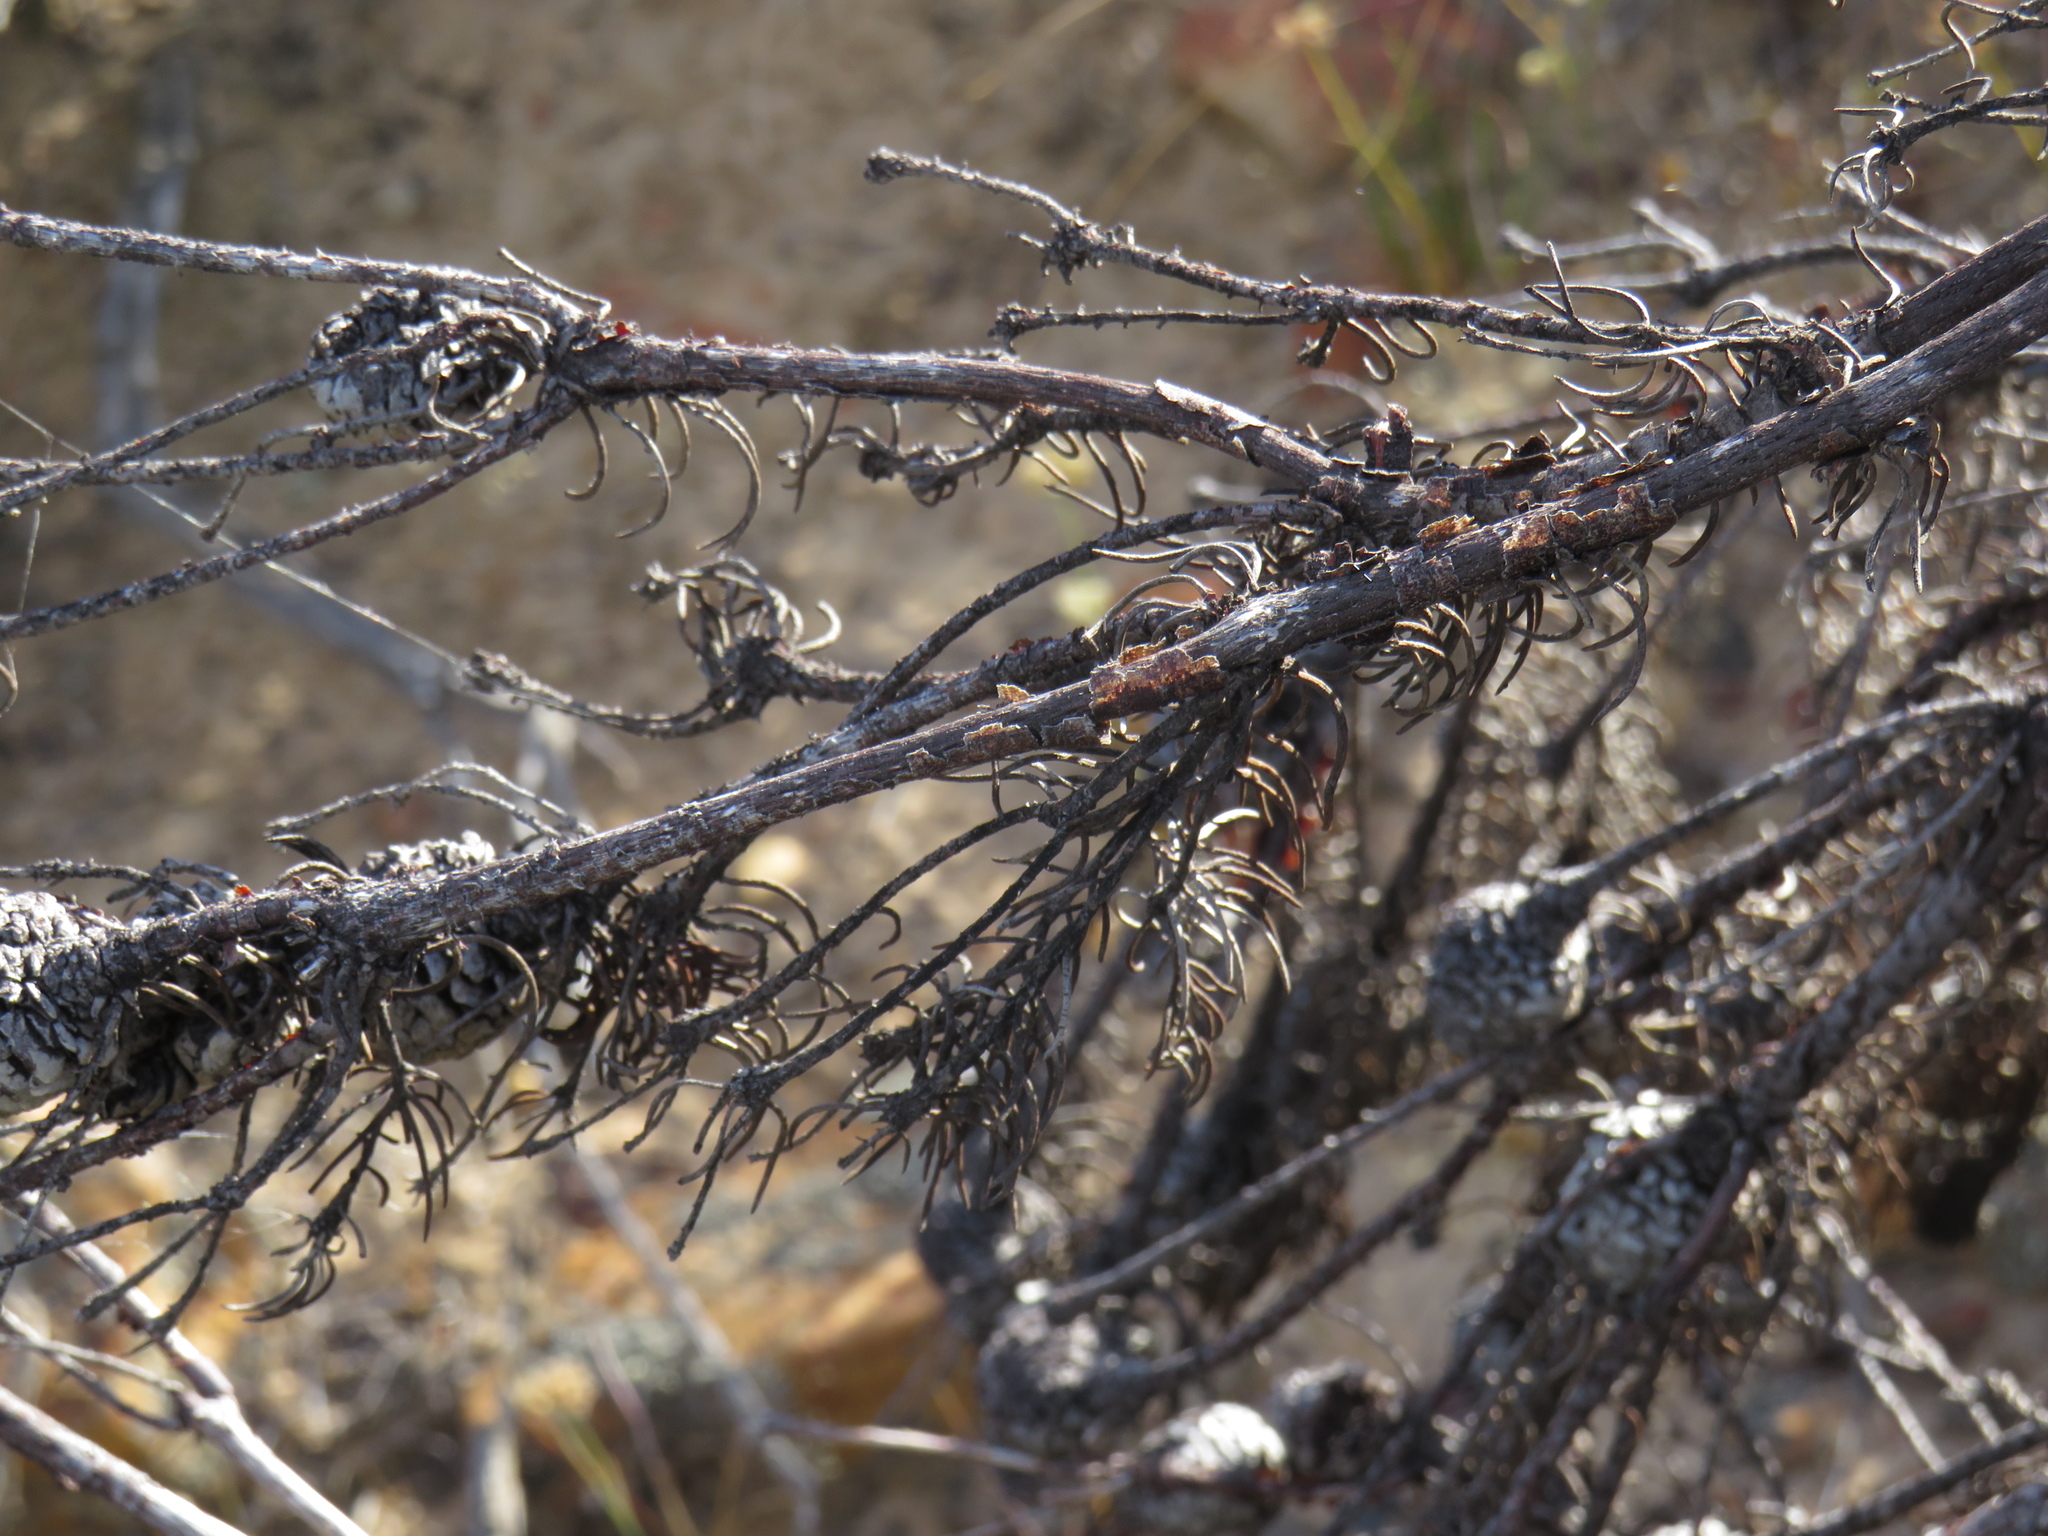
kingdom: Plantae
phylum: Tracheophyta
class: Magnoliopsida
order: Proteales
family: Proteaceae
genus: Leucadendron
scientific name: Leucadendron teretifolium
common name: Needle-leaf conebush
